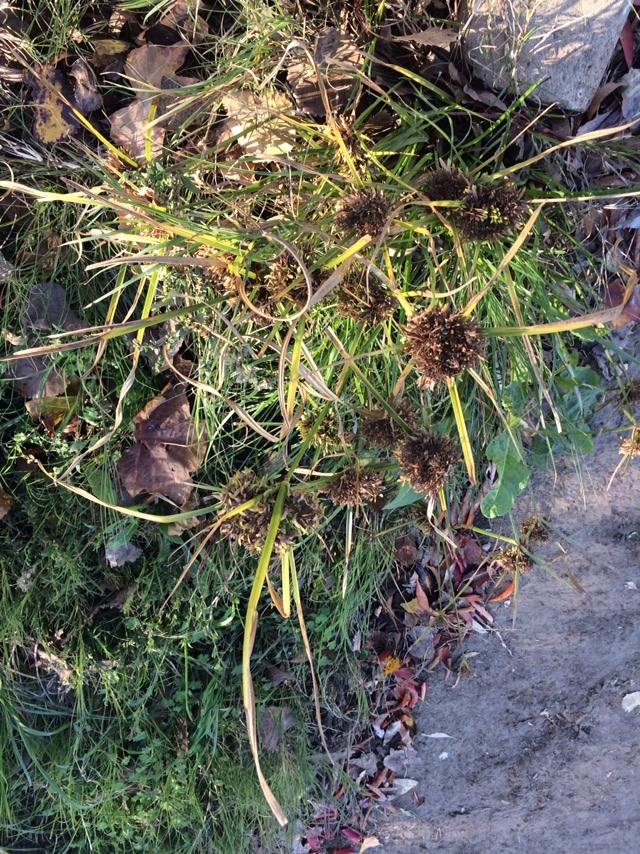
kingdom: Plantae
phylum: Tracheophyta
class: Liliopsida
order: Poales
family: Cyperaceae
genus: Cyperus
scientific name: Cyperus eragrostis
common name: Tall flatsedge
